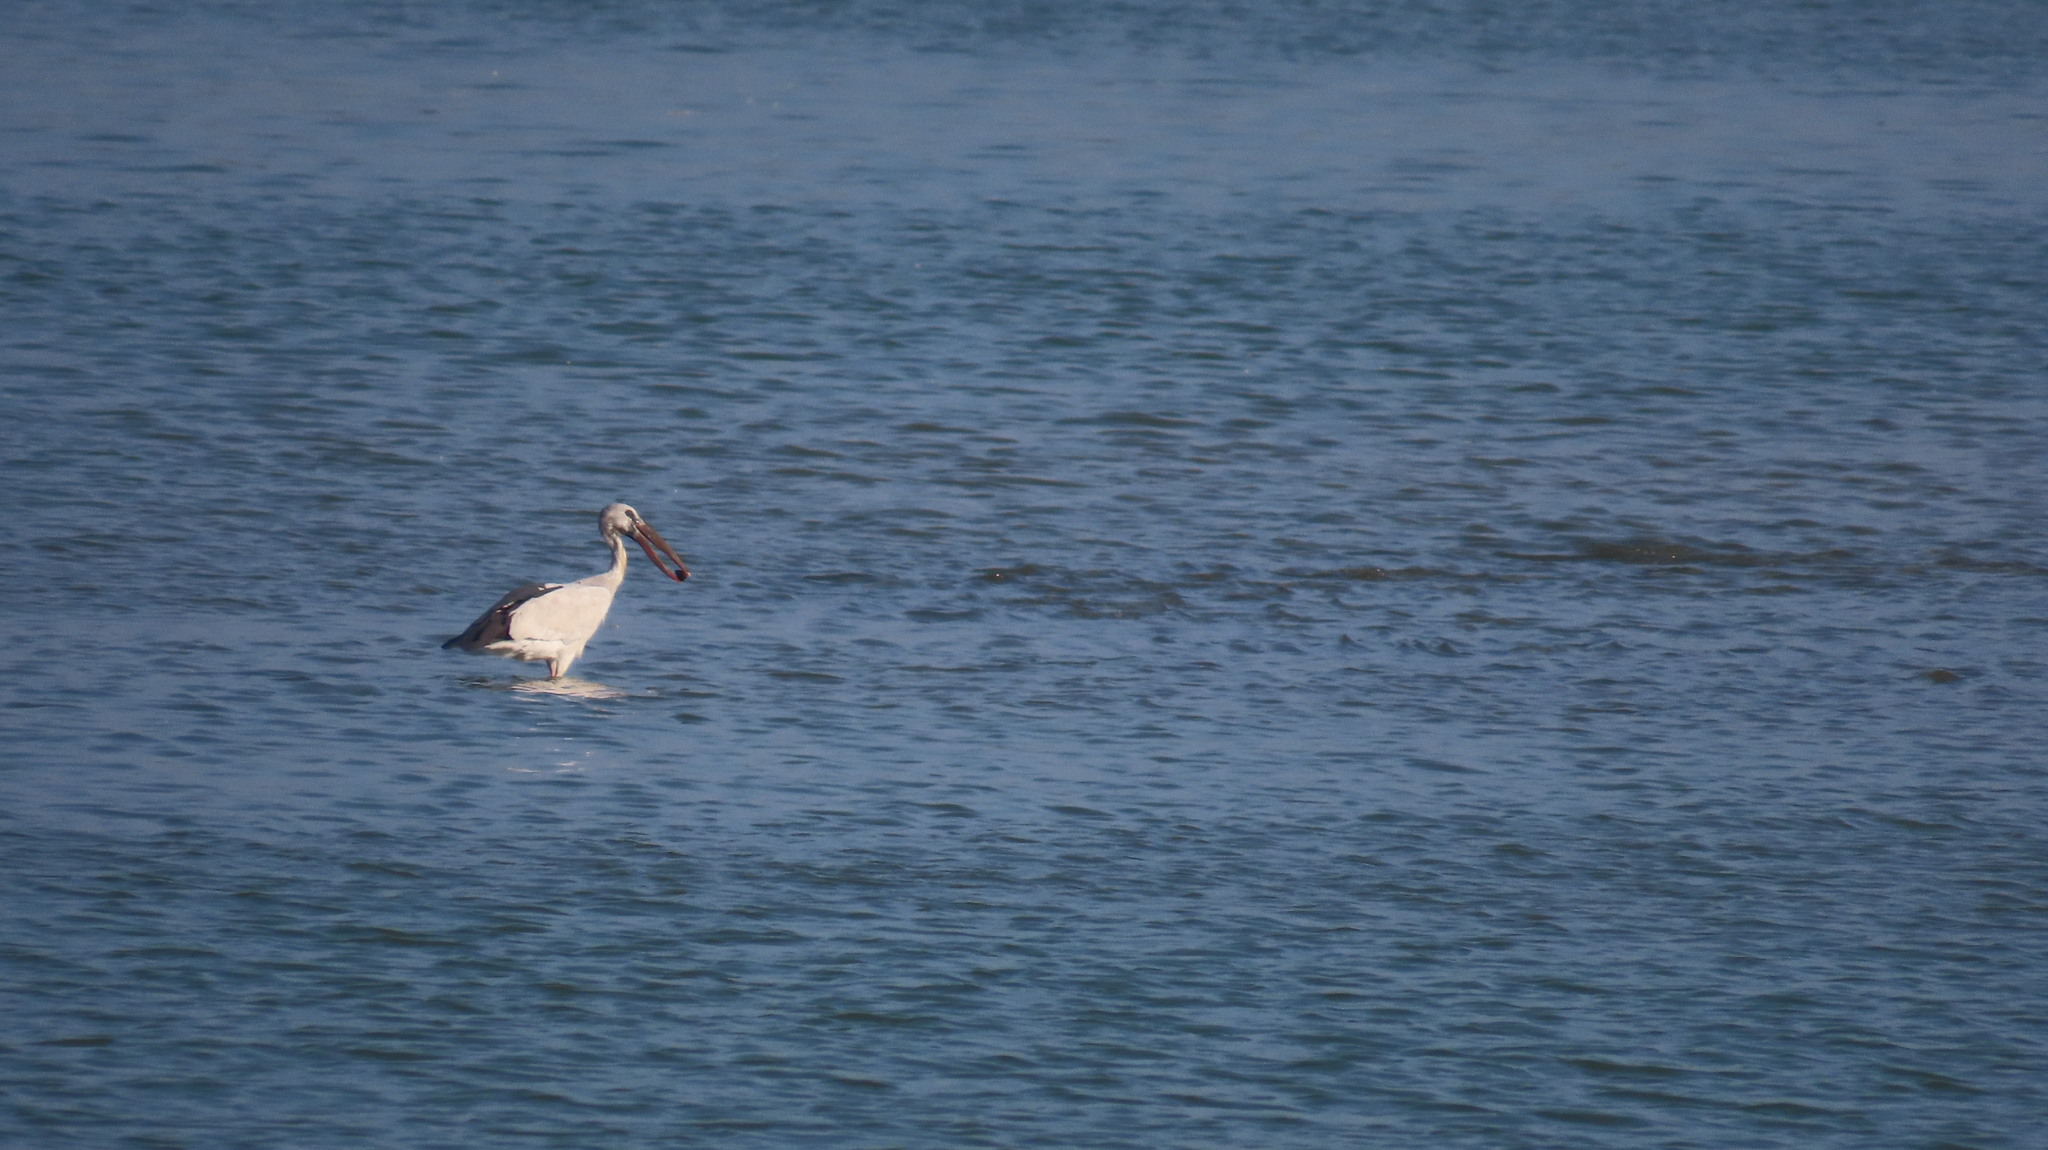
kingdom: Animalia
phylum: Chordata
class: Aves
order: Ciconiiformes
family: Ciconiidae
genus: Anastomus
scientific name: Anastomus oscitans
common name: Asian openbill
